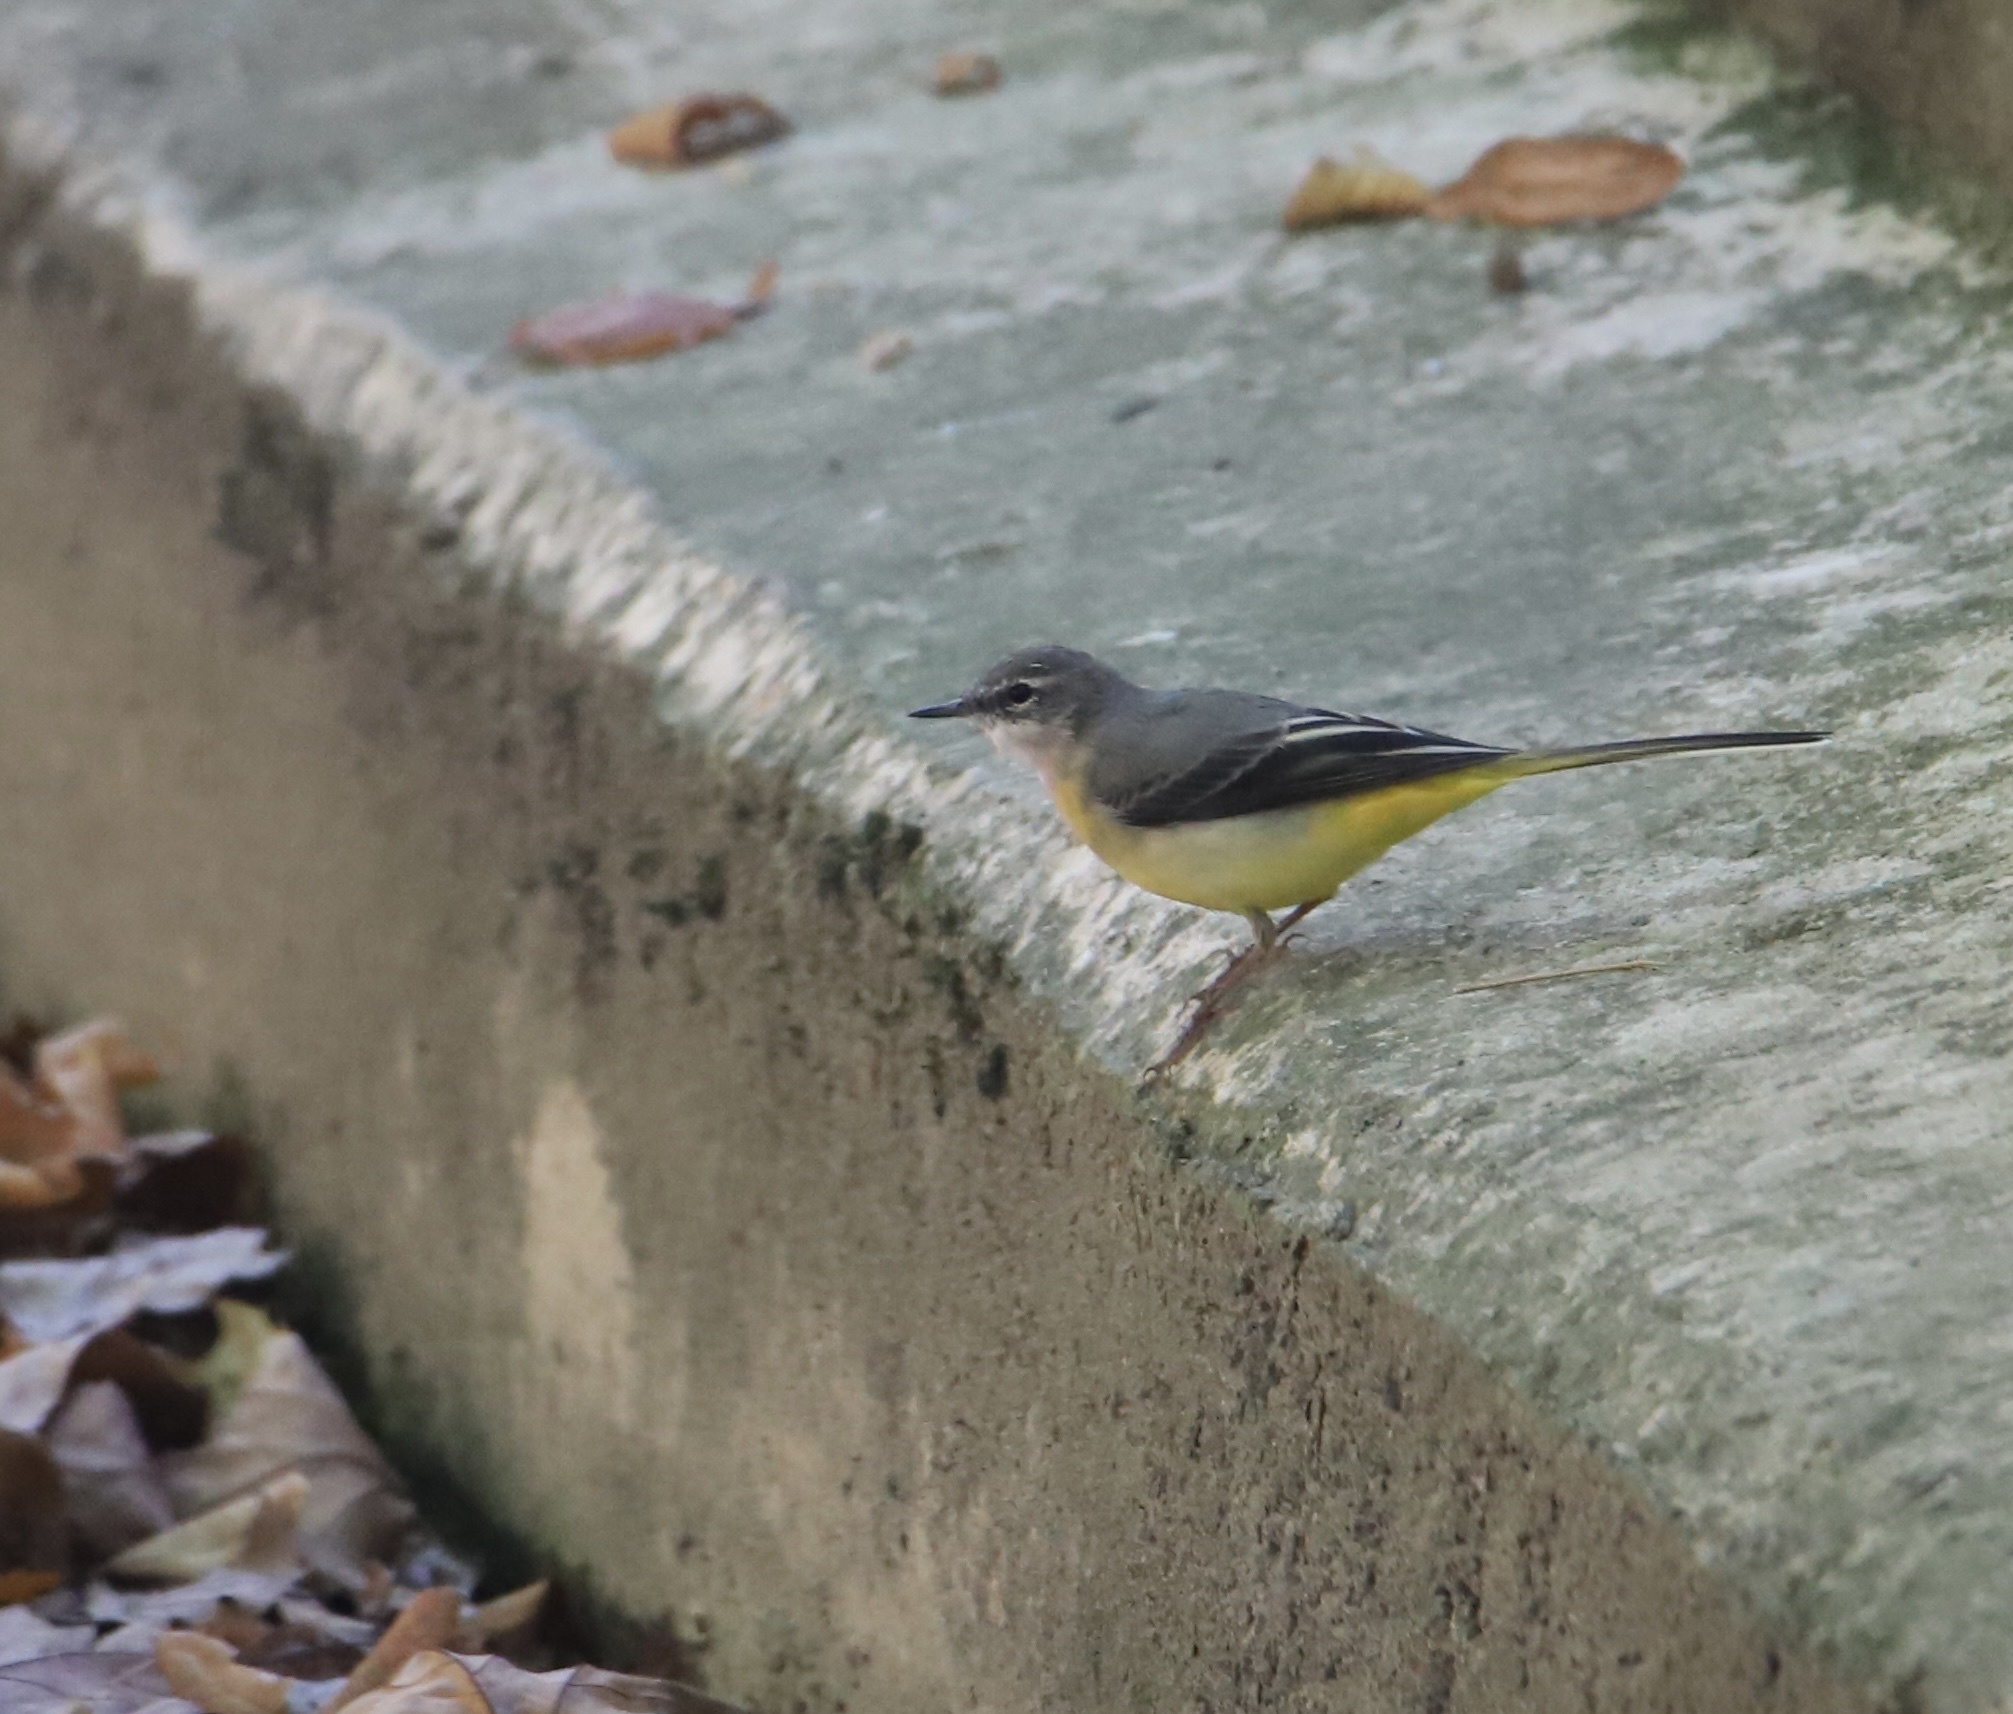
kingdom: Animalia
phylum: Chordata
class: Aves
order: Passeriformes
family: Motacillidae
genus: Motacilla
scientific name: Motacilla cinerea
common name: Grey wagtail
